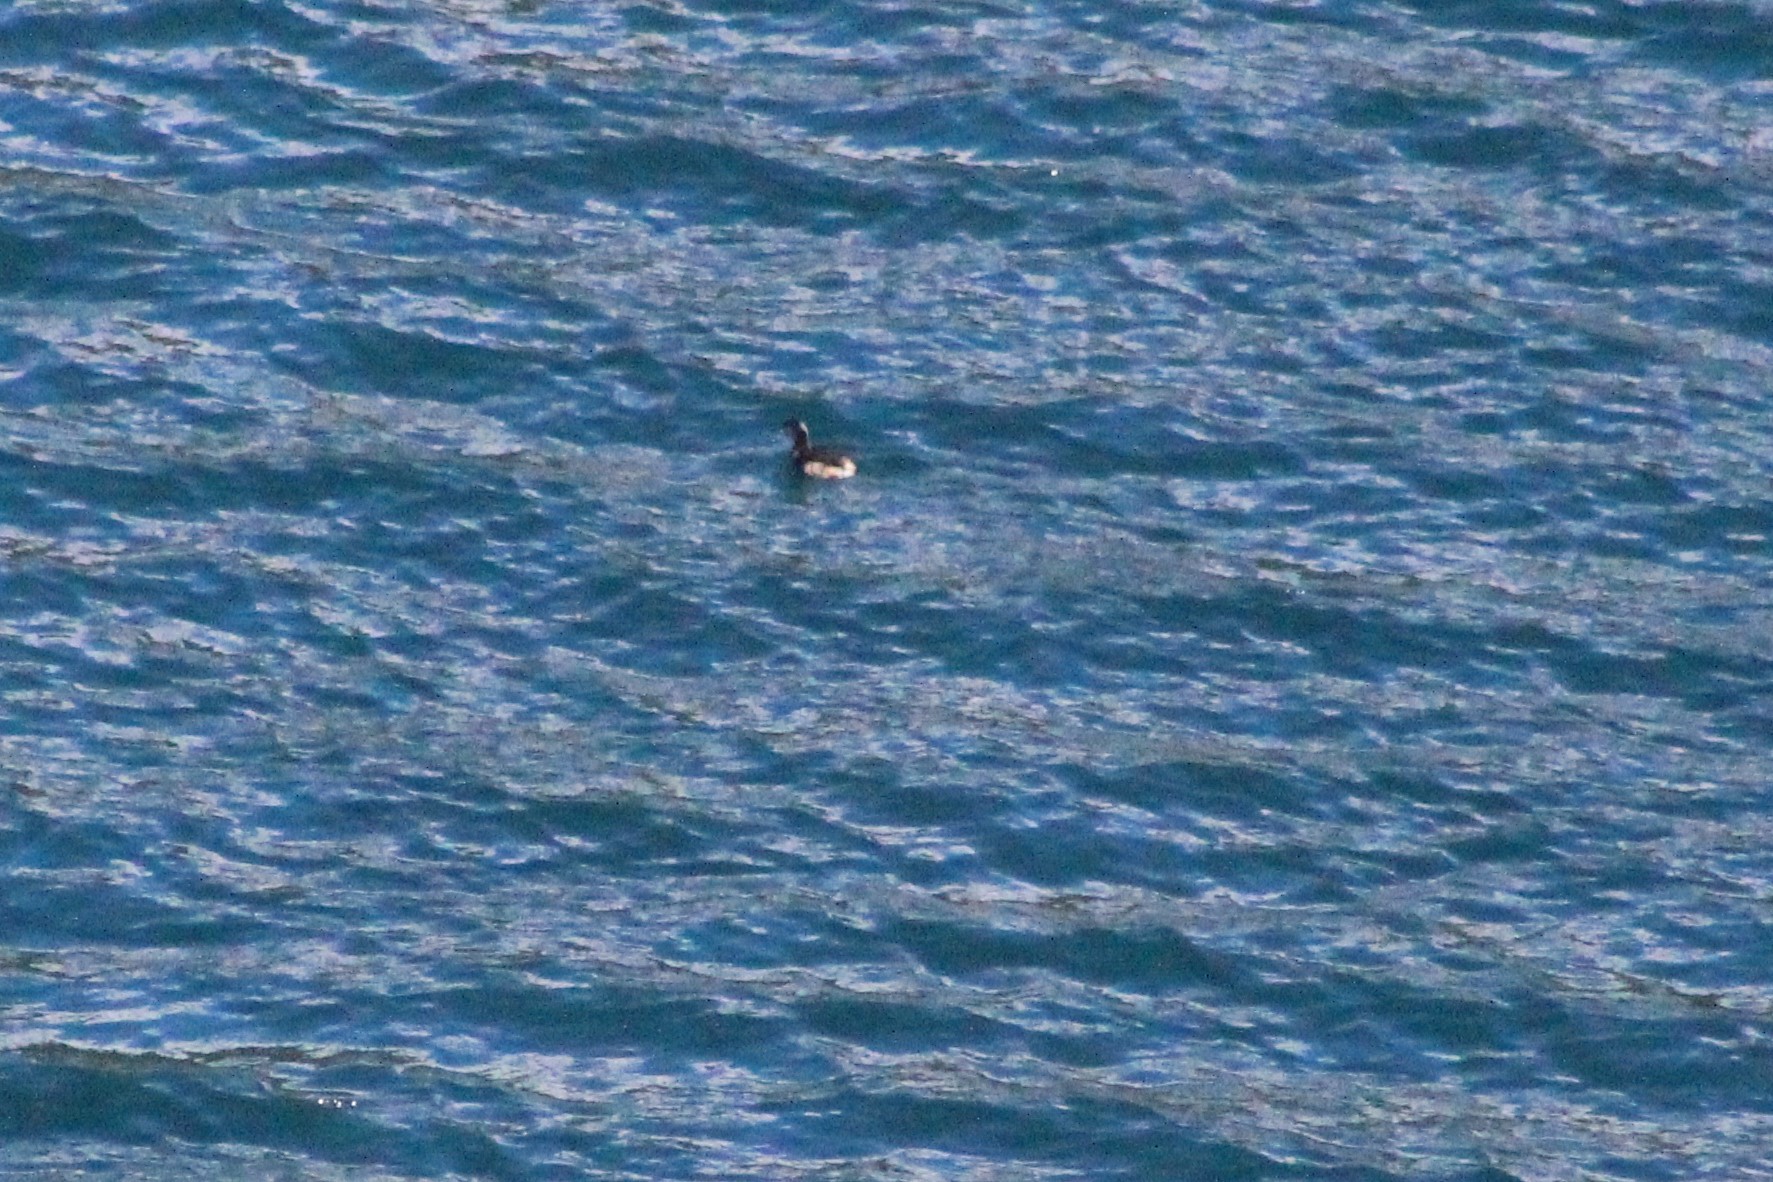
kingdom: Animalia
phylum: Chordata
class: Aves
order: Podicipediformes
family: Podicipedidae
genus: Podiceps
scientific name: Podiceps occipitalis
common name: Silvery grebe
